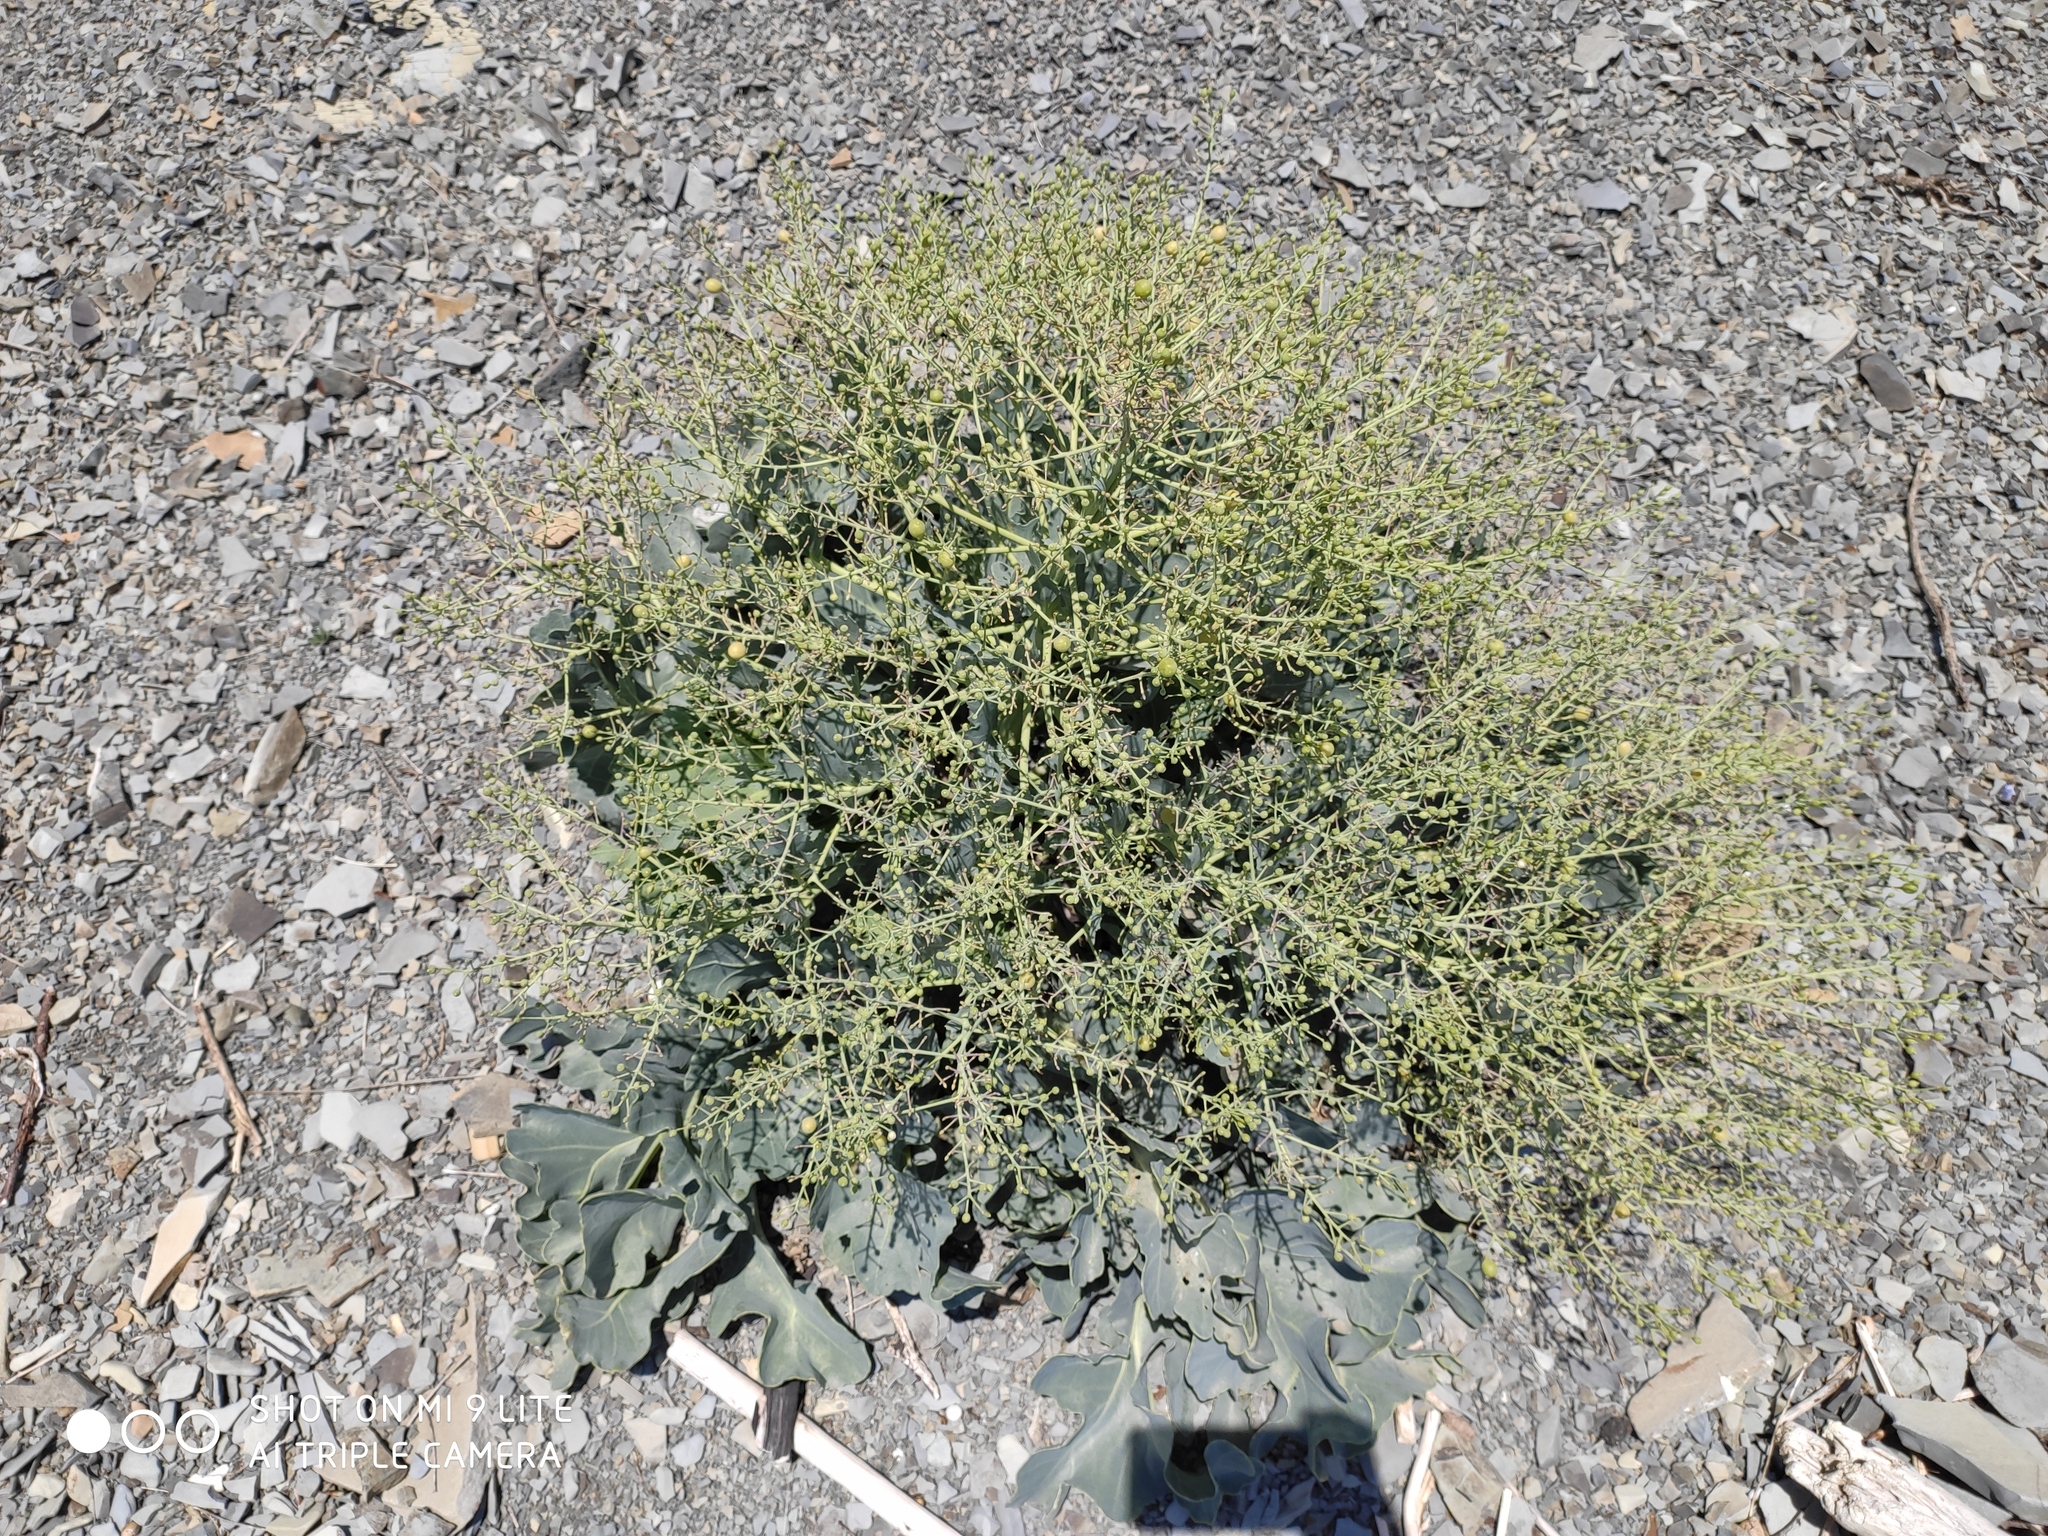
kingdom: Plantae
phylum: Tracheophyta
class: Magnoliopsida
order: Brassicales
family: Brassicaceae
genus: Crambe
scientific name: Crambe maritima
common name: Sea-kale
